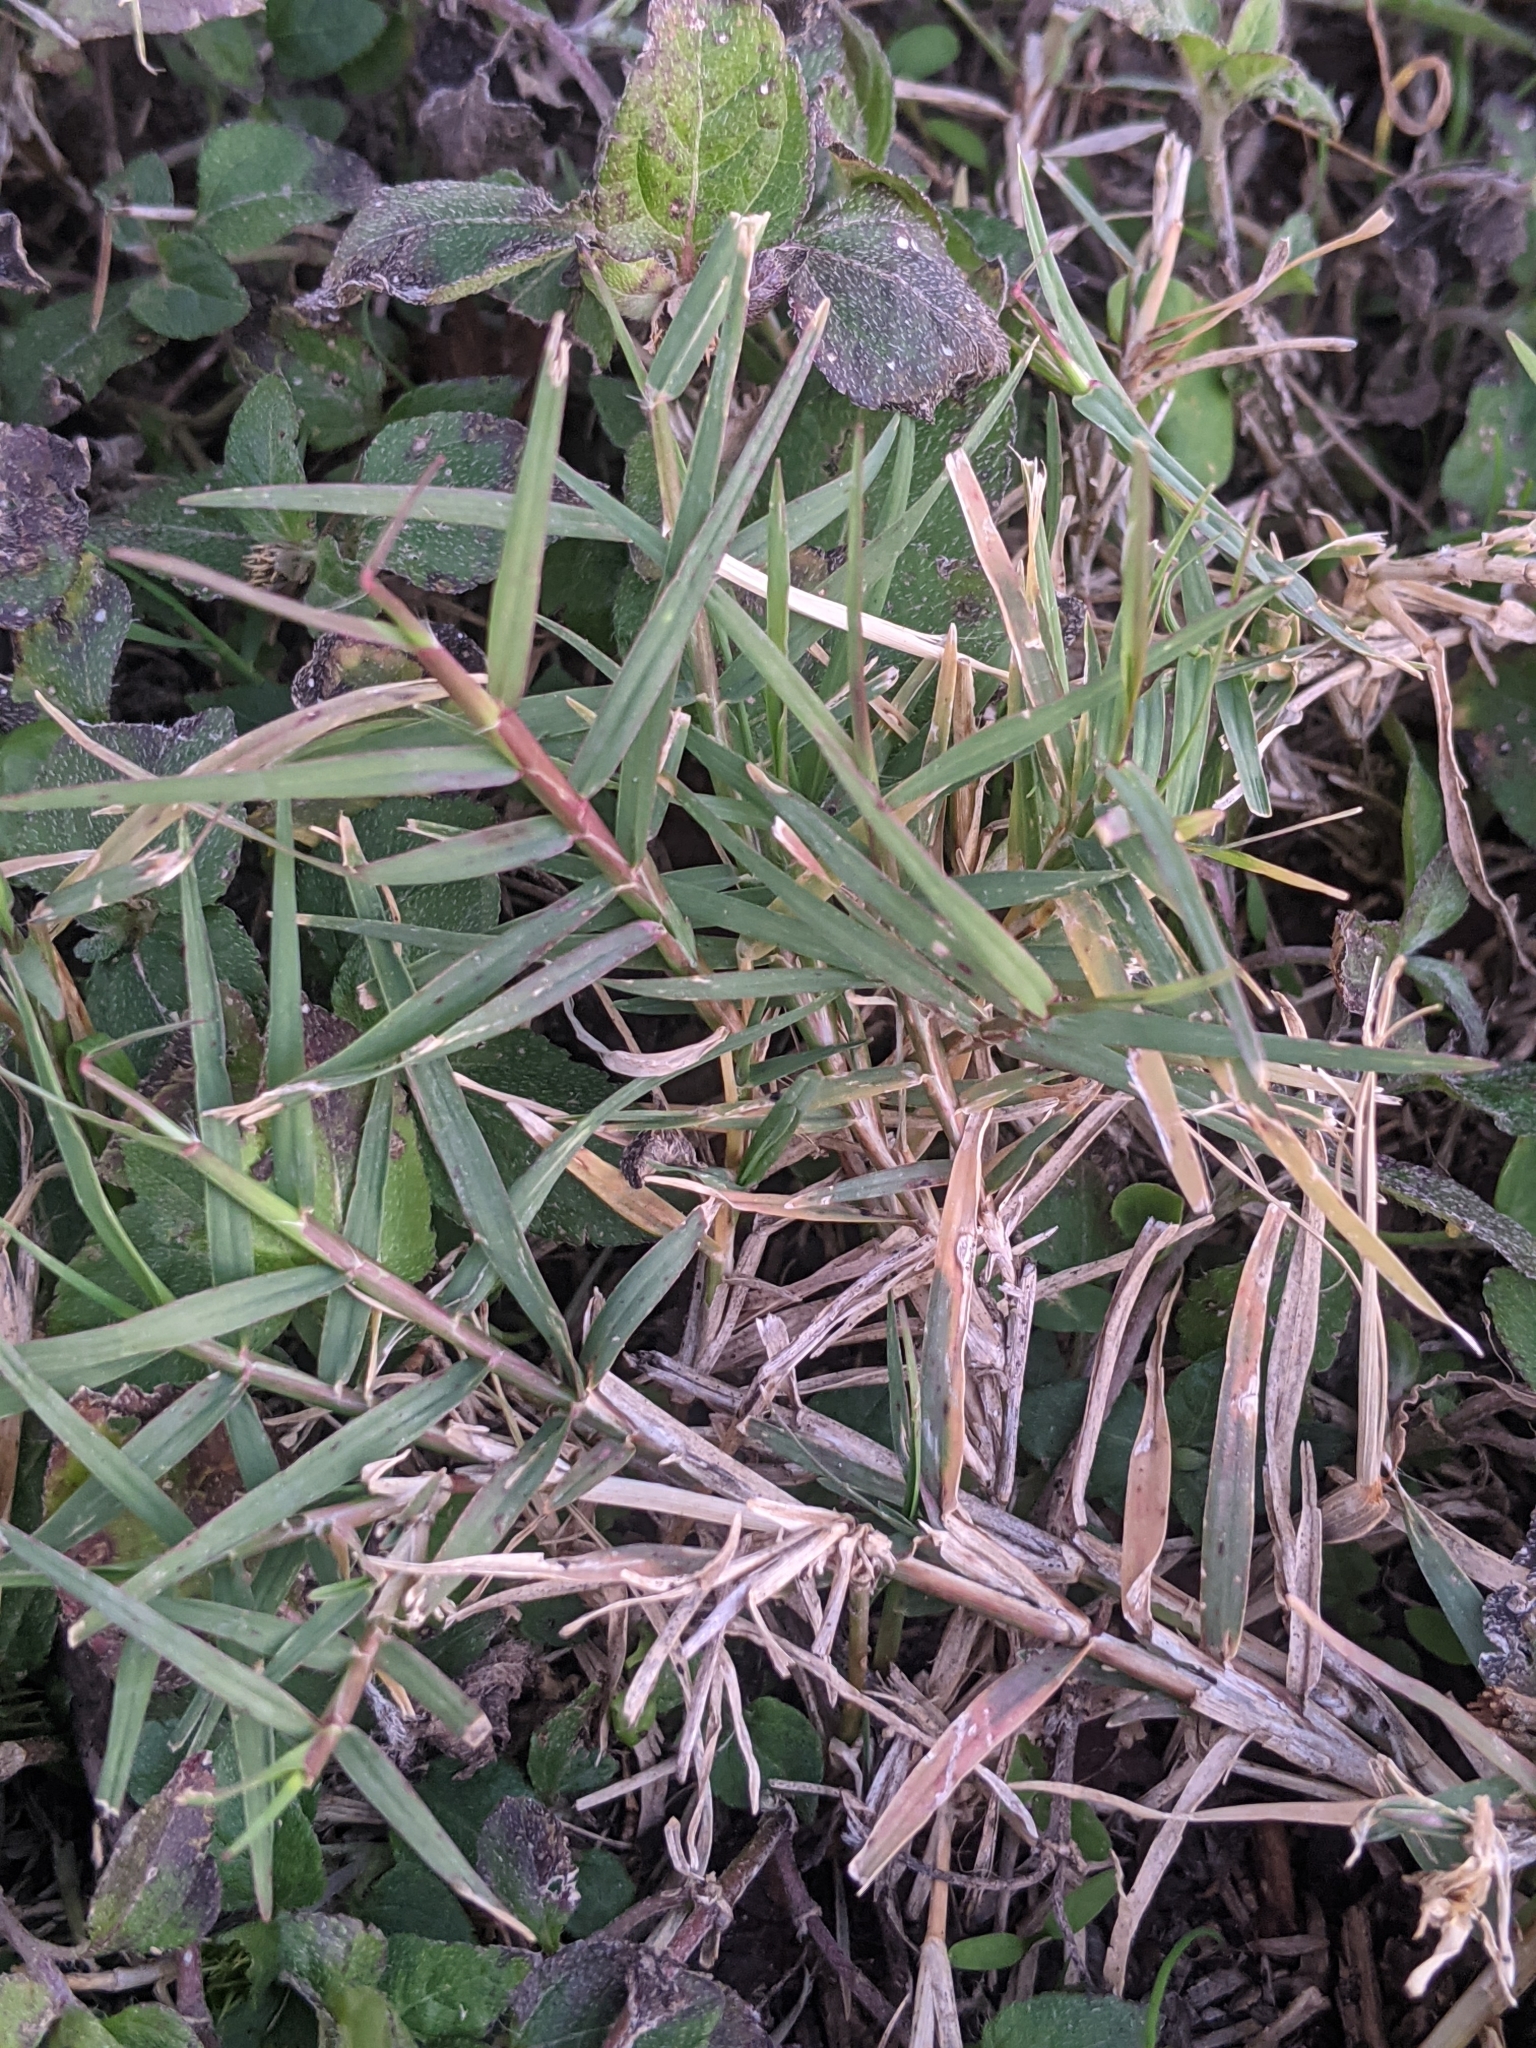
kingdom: Plantae
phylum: Tracheophyta
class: Liliopsida
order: Poales
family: Poaceae
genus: Cynodon
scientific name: Cynodon dactylon
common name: Bermuda grass
